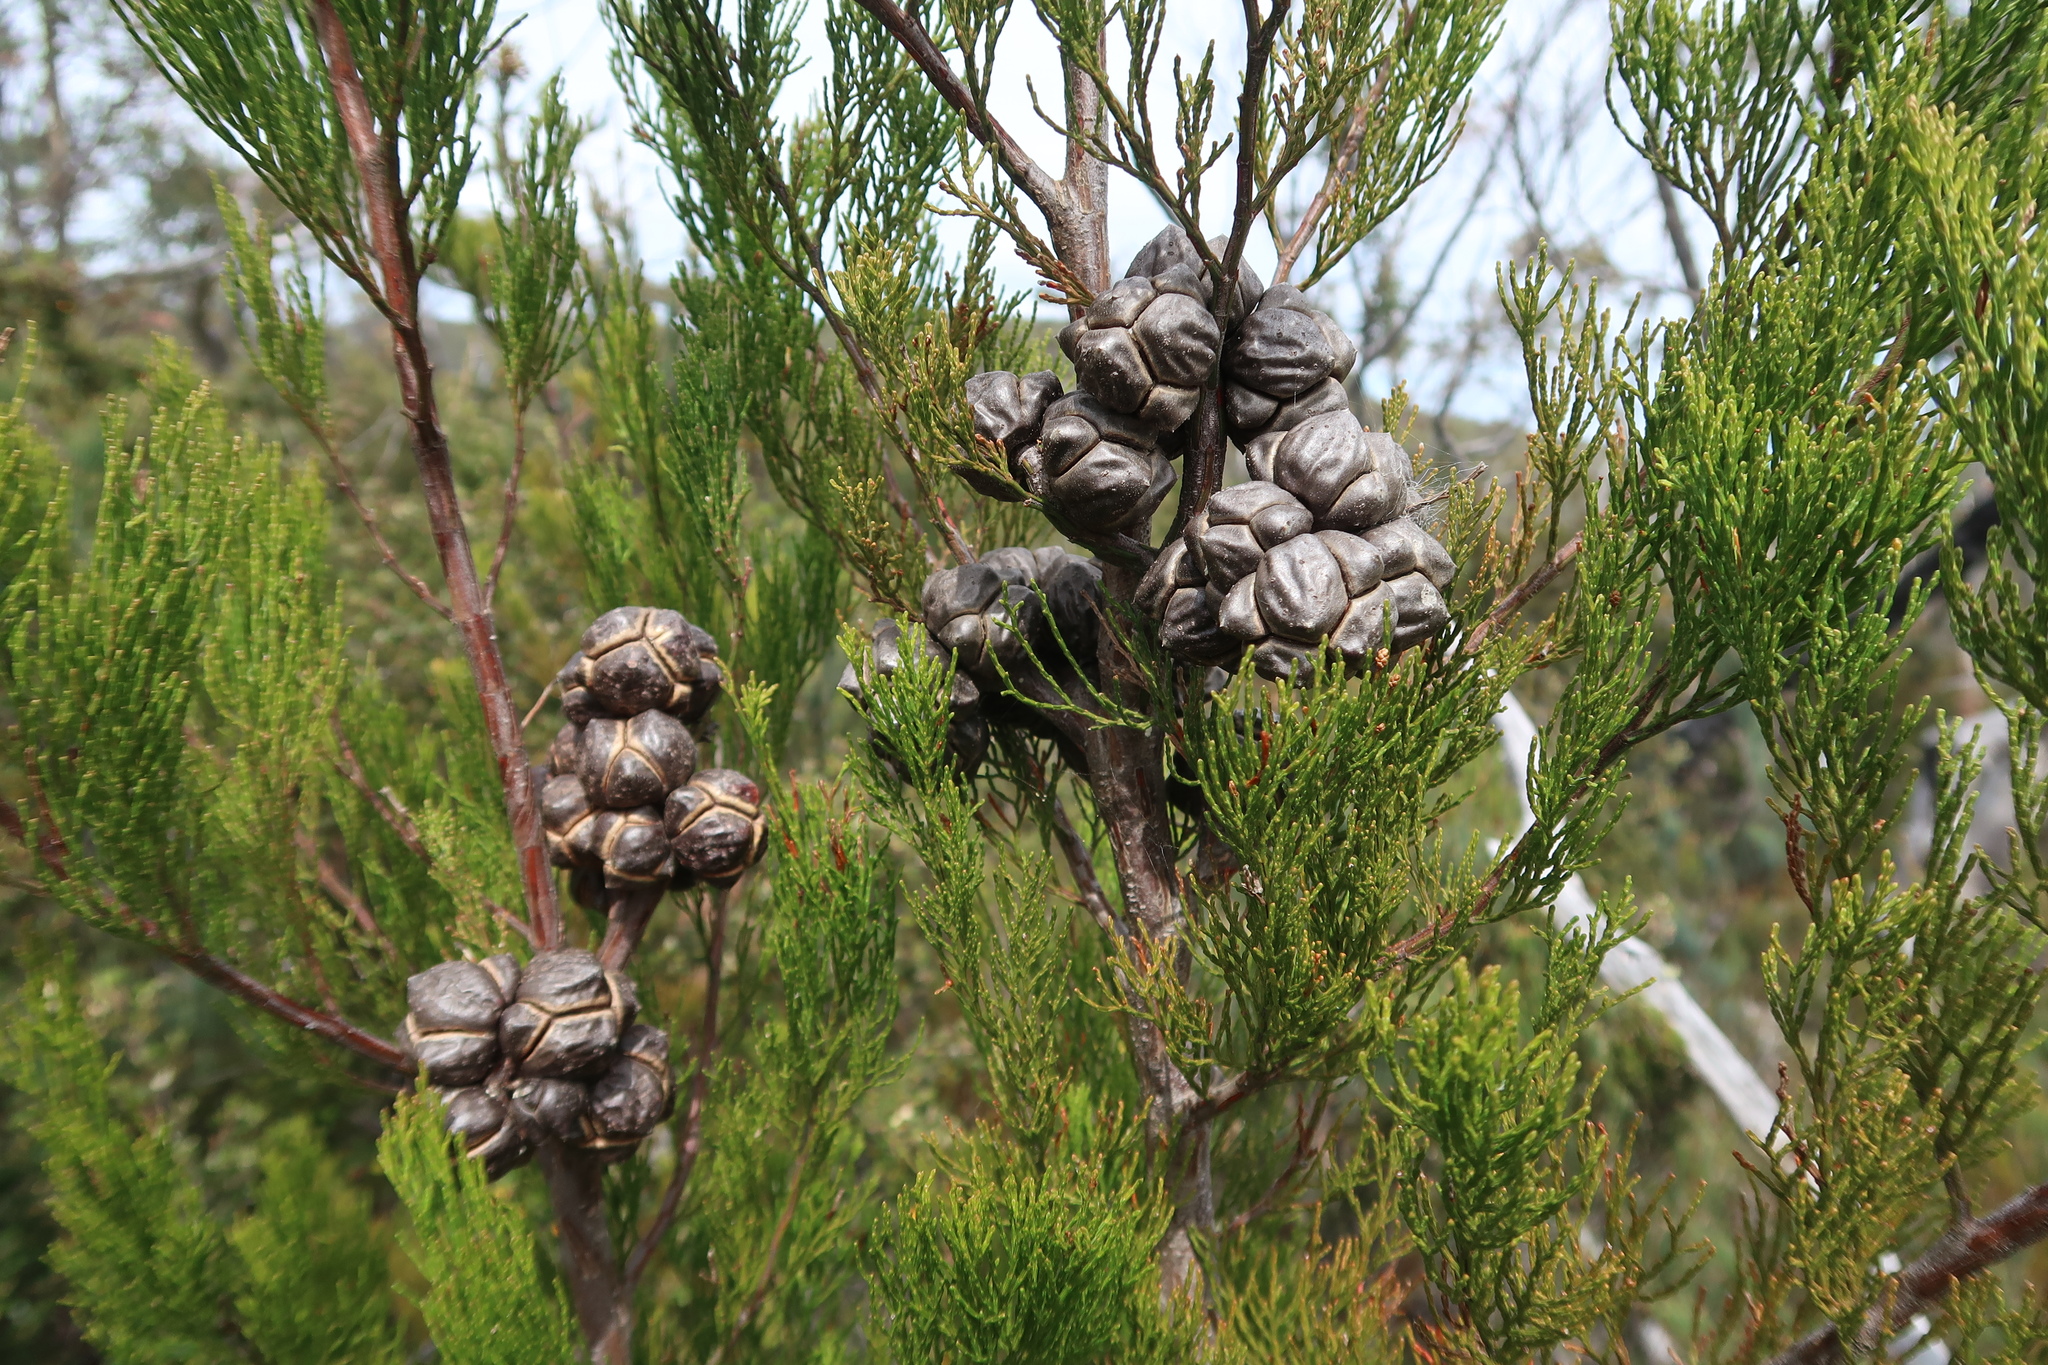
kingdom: Plantae
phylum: Tracheophyta
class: Pinopsida
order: Pinales
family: Cupressaceae
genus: Callitris
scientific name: Callitris rhomboidea
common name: Illawara mountain pine
